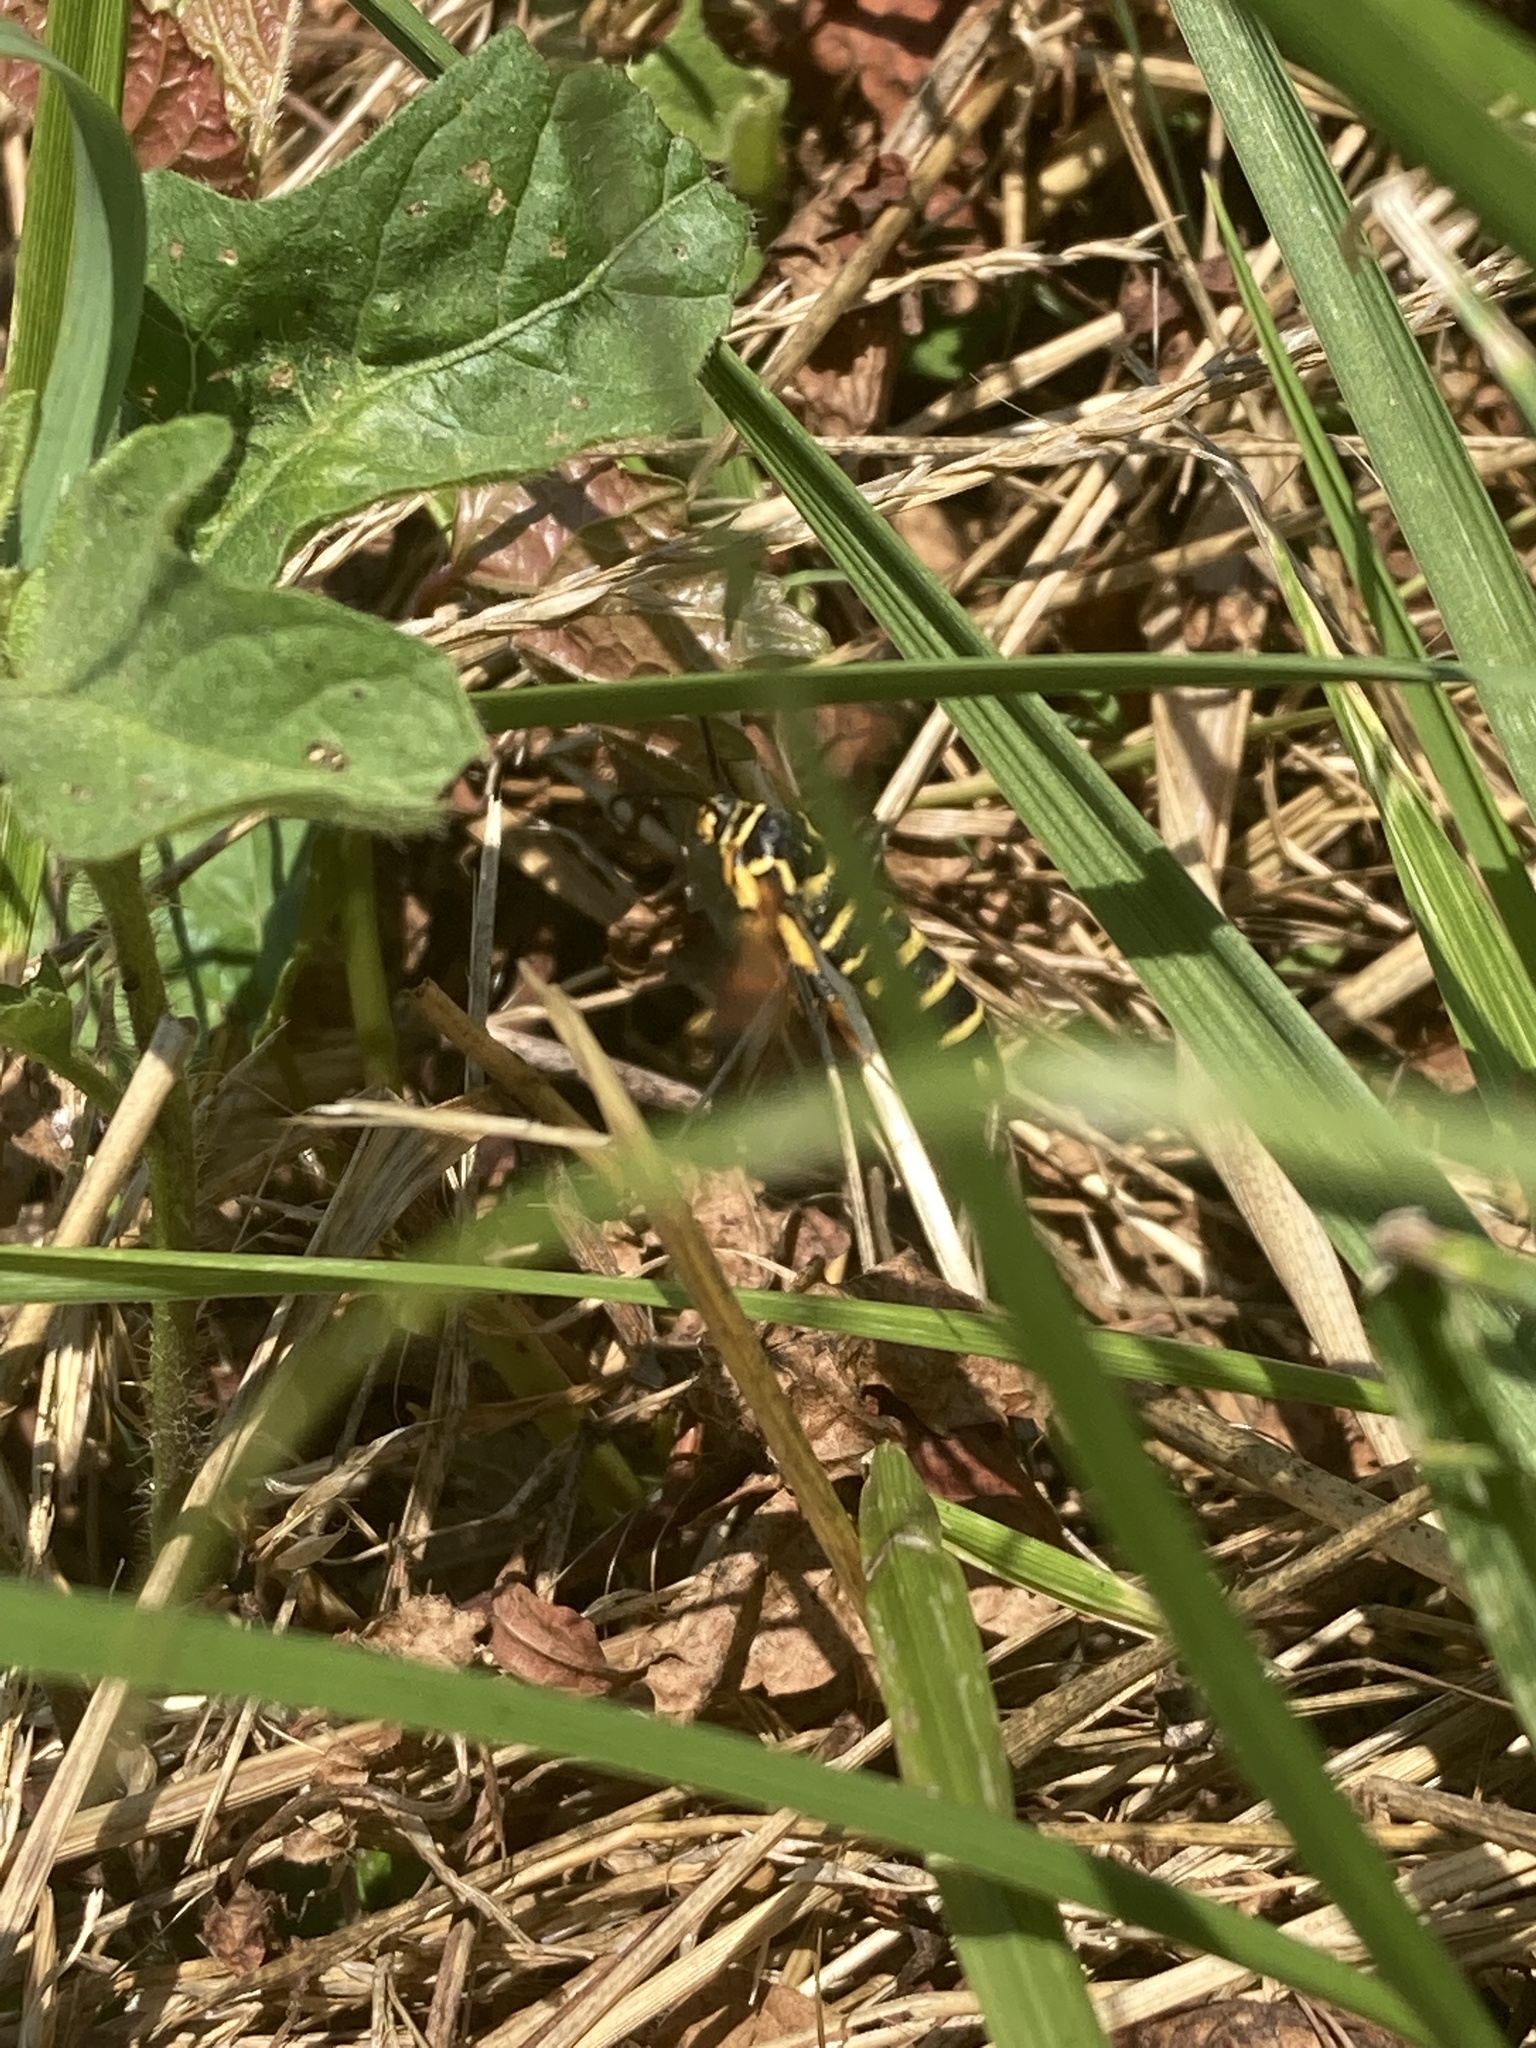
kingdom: Animalia
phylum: Arthropoda
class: Insecta
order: Lepidoptera
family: Sesiidae
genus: Synanthedon
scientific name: Synanthedon rileyana
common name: Riley's clearwing moth
